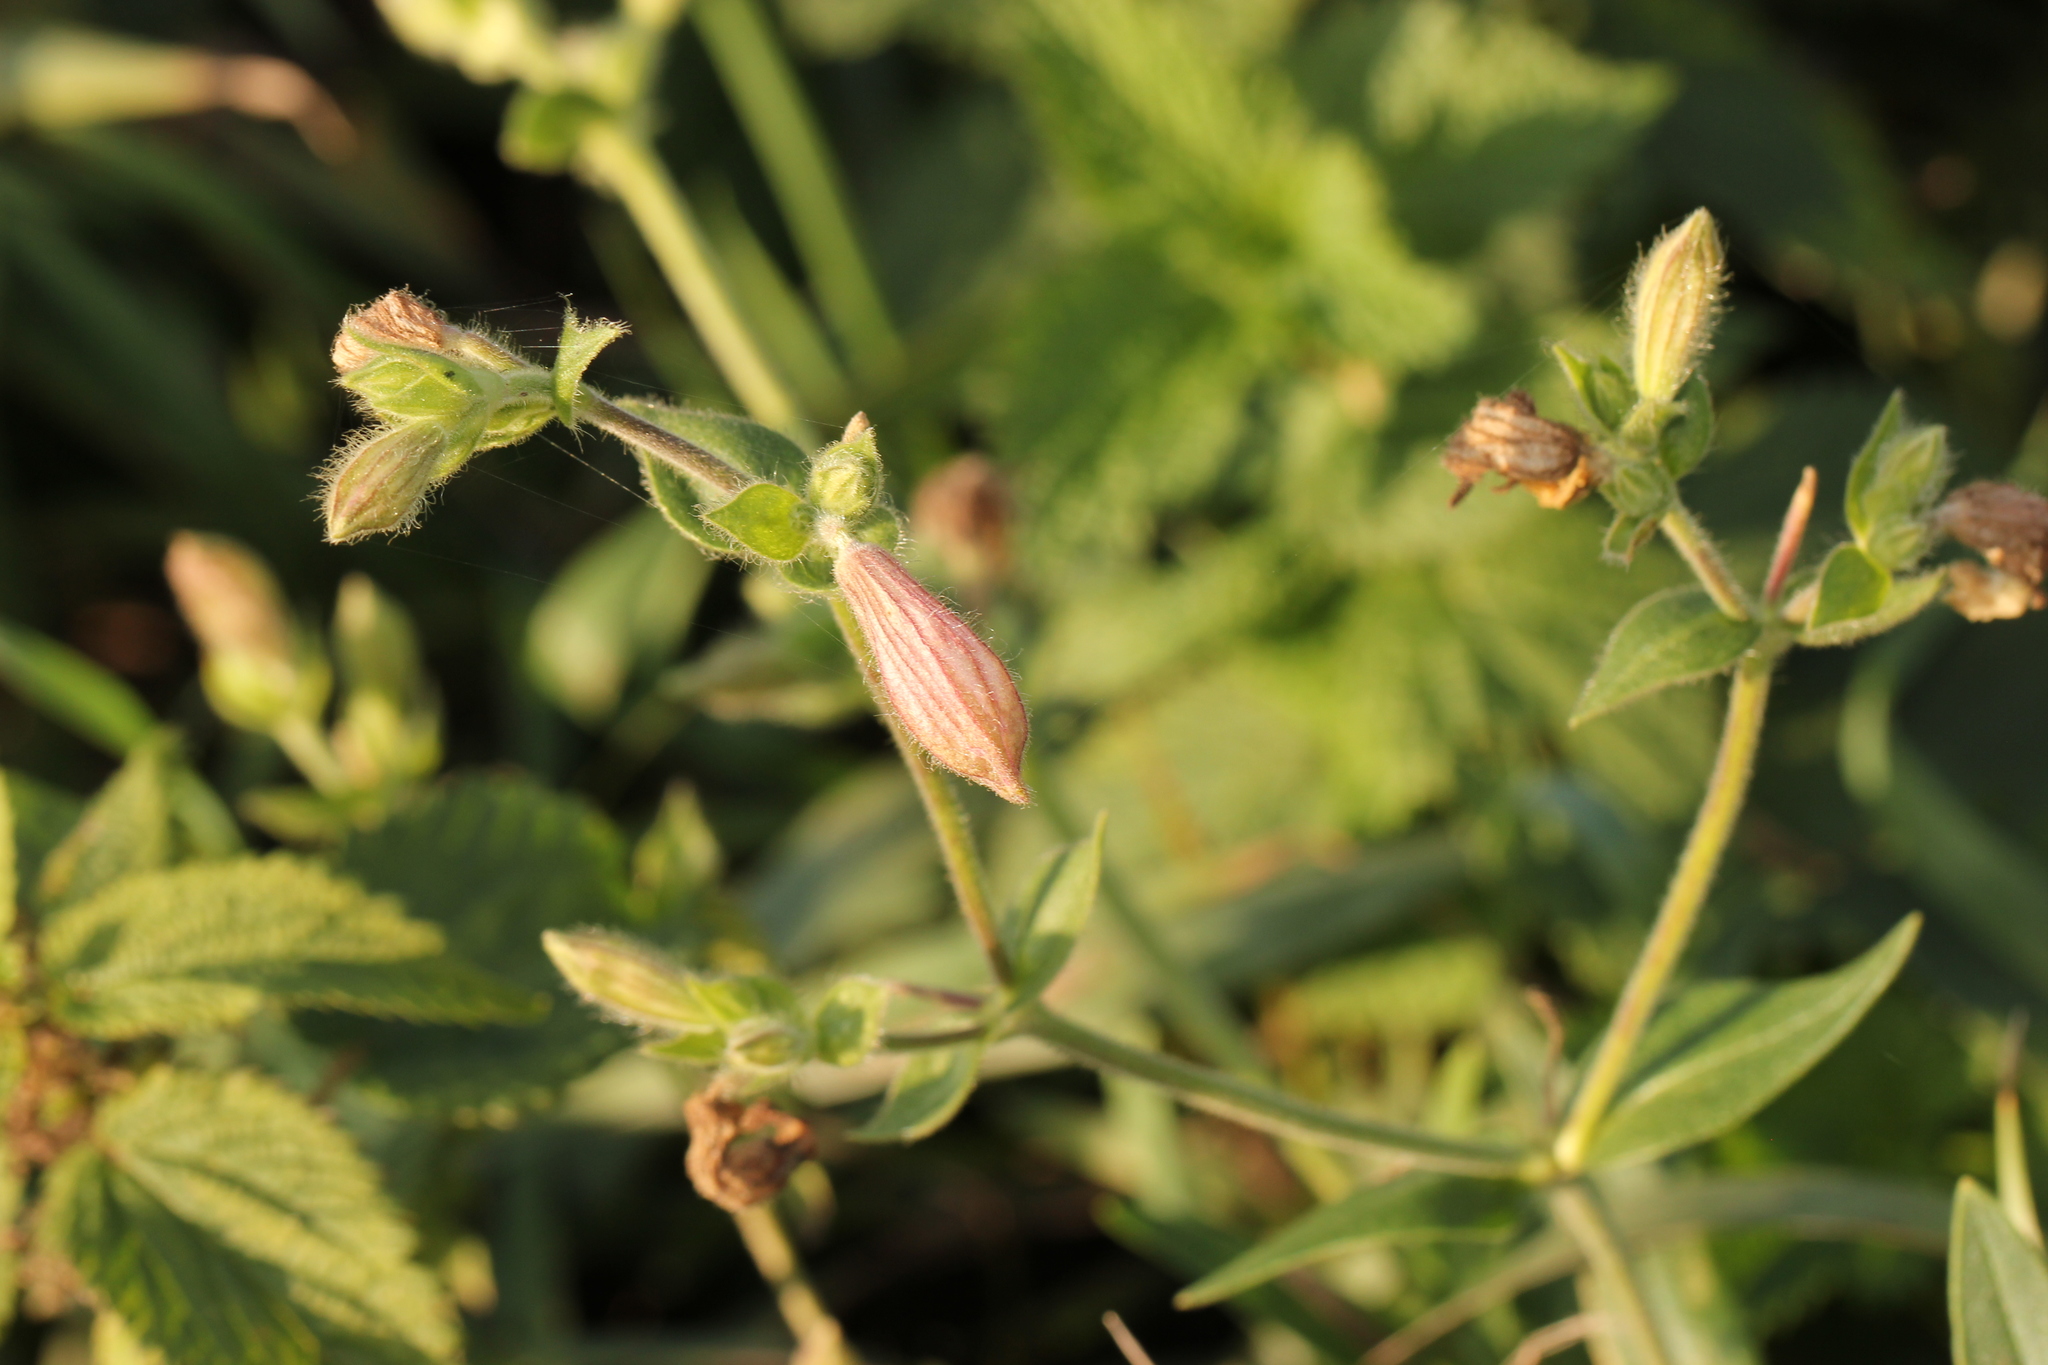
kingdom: Plantae
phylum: Tracheophyta
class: Magnoliopsida
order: Caryophyllales
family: Caryophyllaceae
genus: Silene
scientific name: Silene latifolia
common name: White campion
